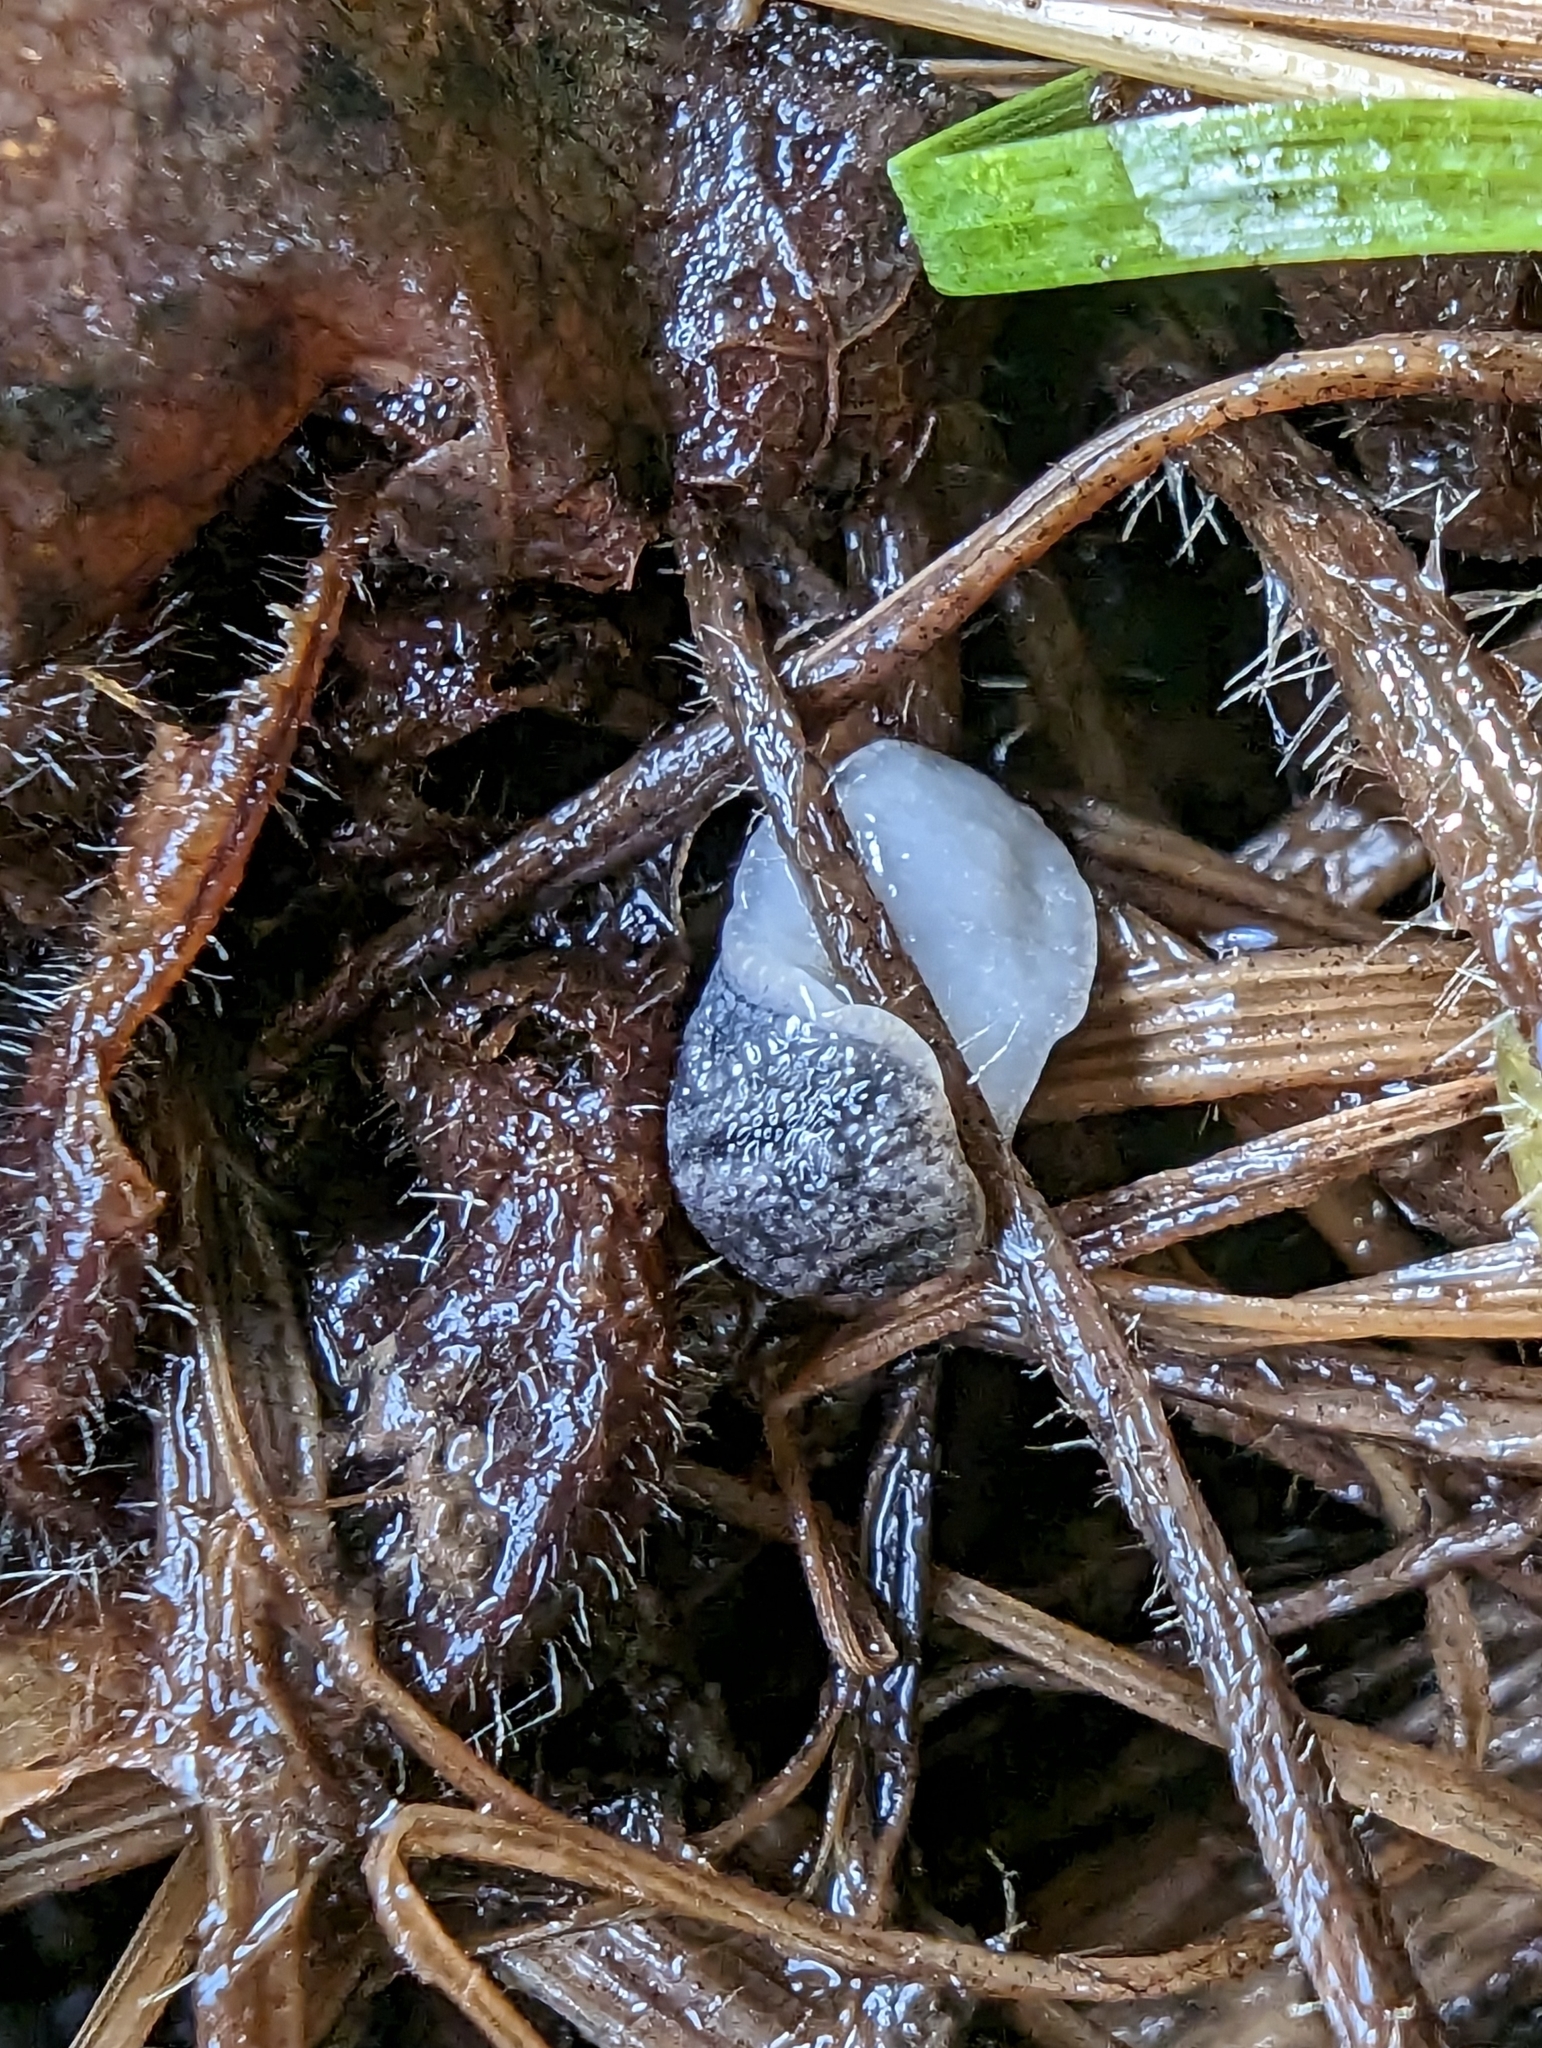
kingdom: Animalia
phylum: Mollusca
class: Gastropoda
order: Stylommatophora
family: Arionidae
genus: Arion
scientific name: Arion
